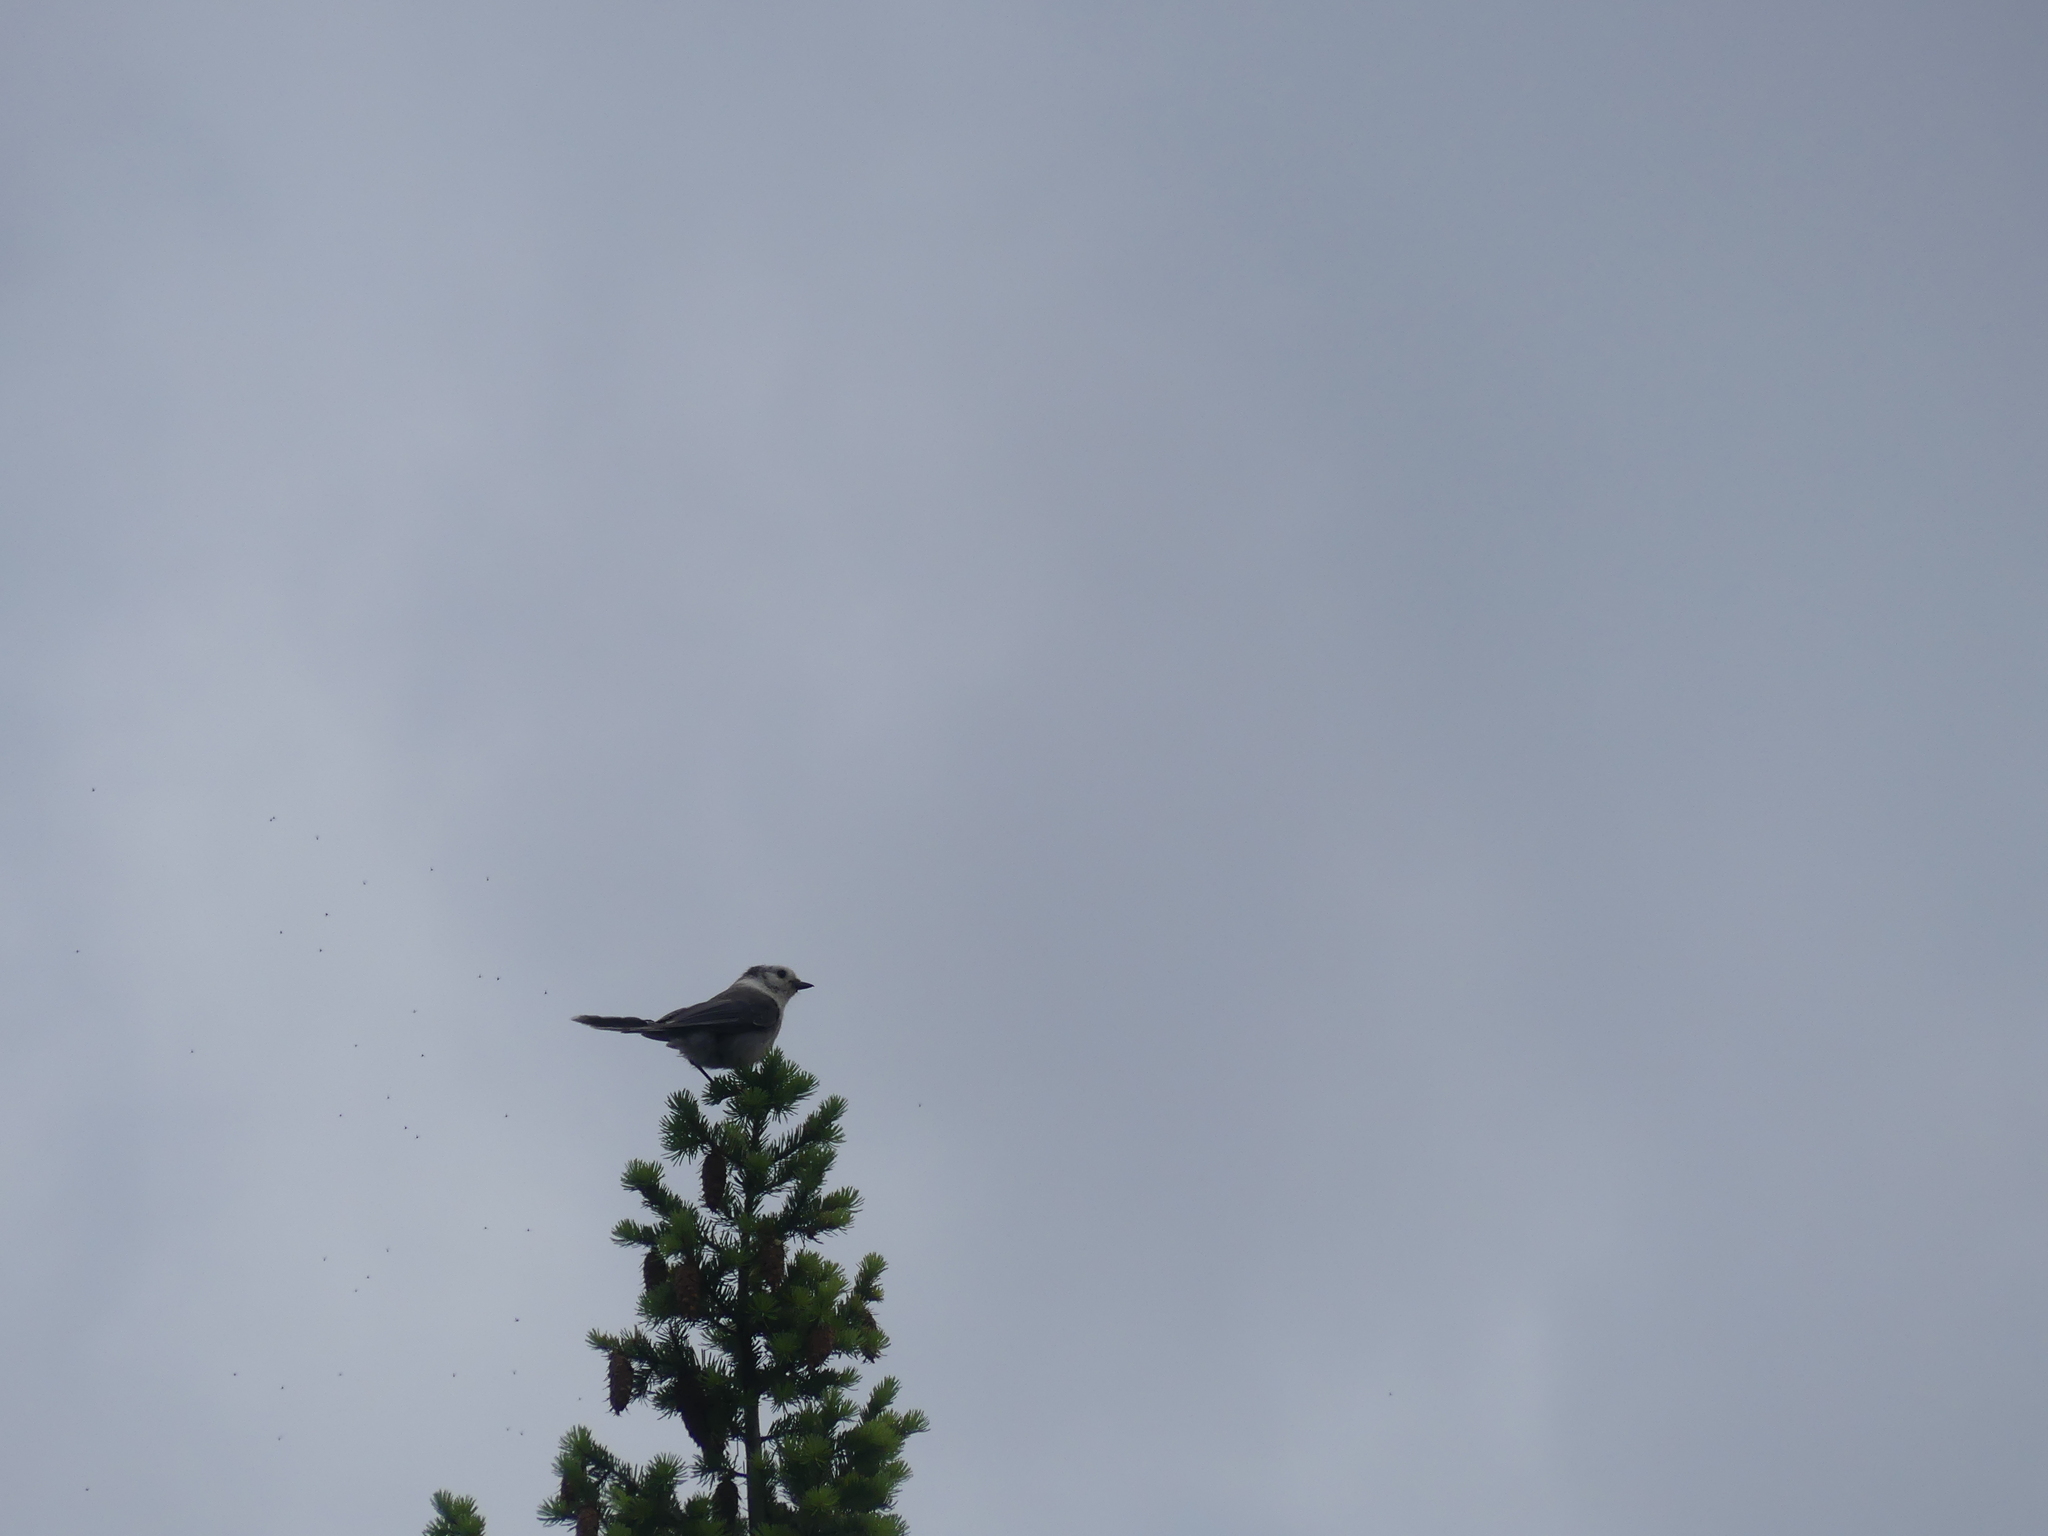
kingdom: Animalia
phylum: Chordata
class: Aves
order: Passeriformes
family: Corvidae
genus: Perisoreus
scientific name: Perisoreus canadensis
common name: Gray jay
